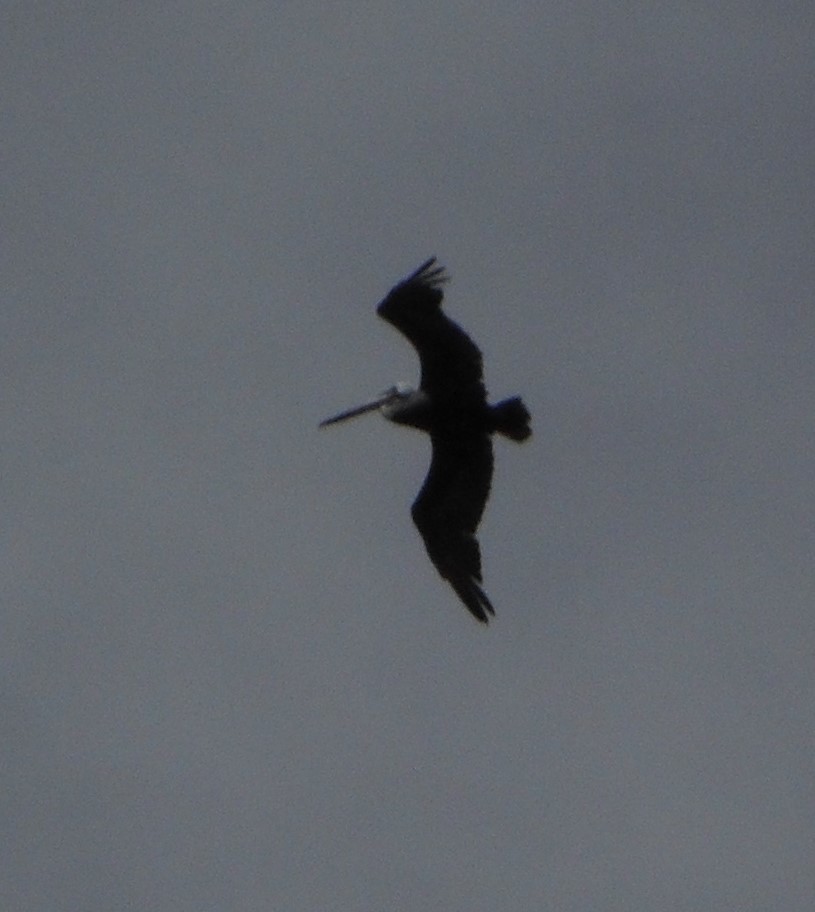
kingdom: Animalia
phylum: Chordata
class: Aves
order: Pelecaniformes
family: Pelecanidae
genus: Pelecanus
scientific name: Pelecanus occidentalis
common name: Brown pelican
